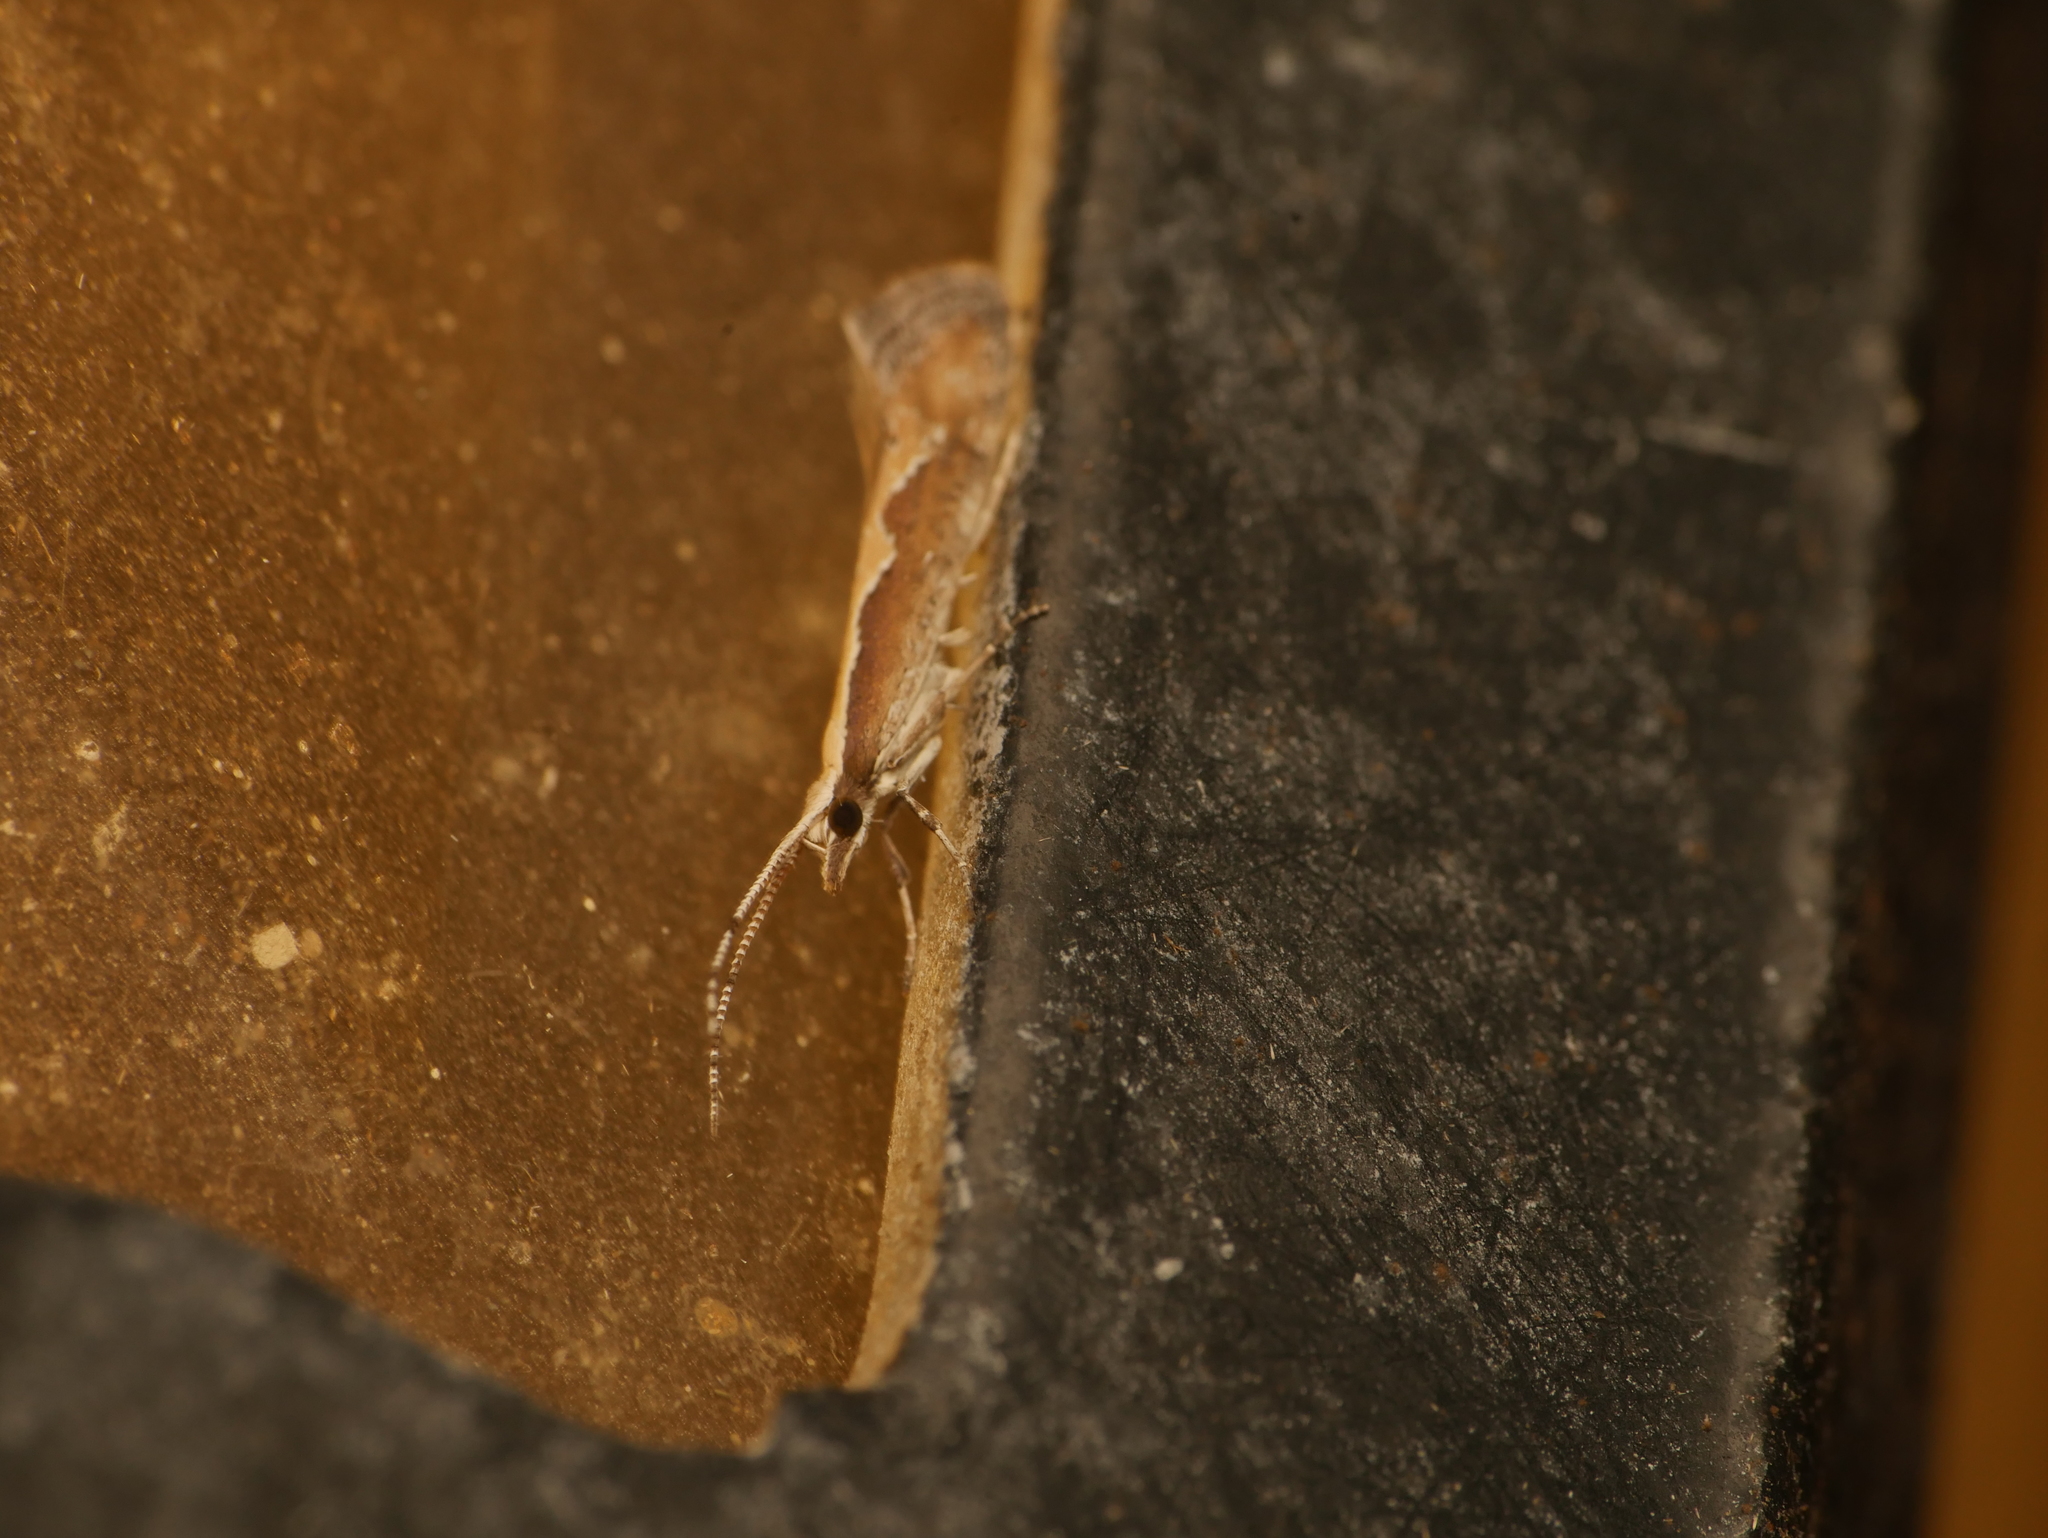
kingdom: Animalia
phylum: Arthropoda
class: Insecta
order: Lepidoptera
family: Plutellidae
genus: Plutella
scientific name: Plutella xylostella
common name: Diamond-back moth
